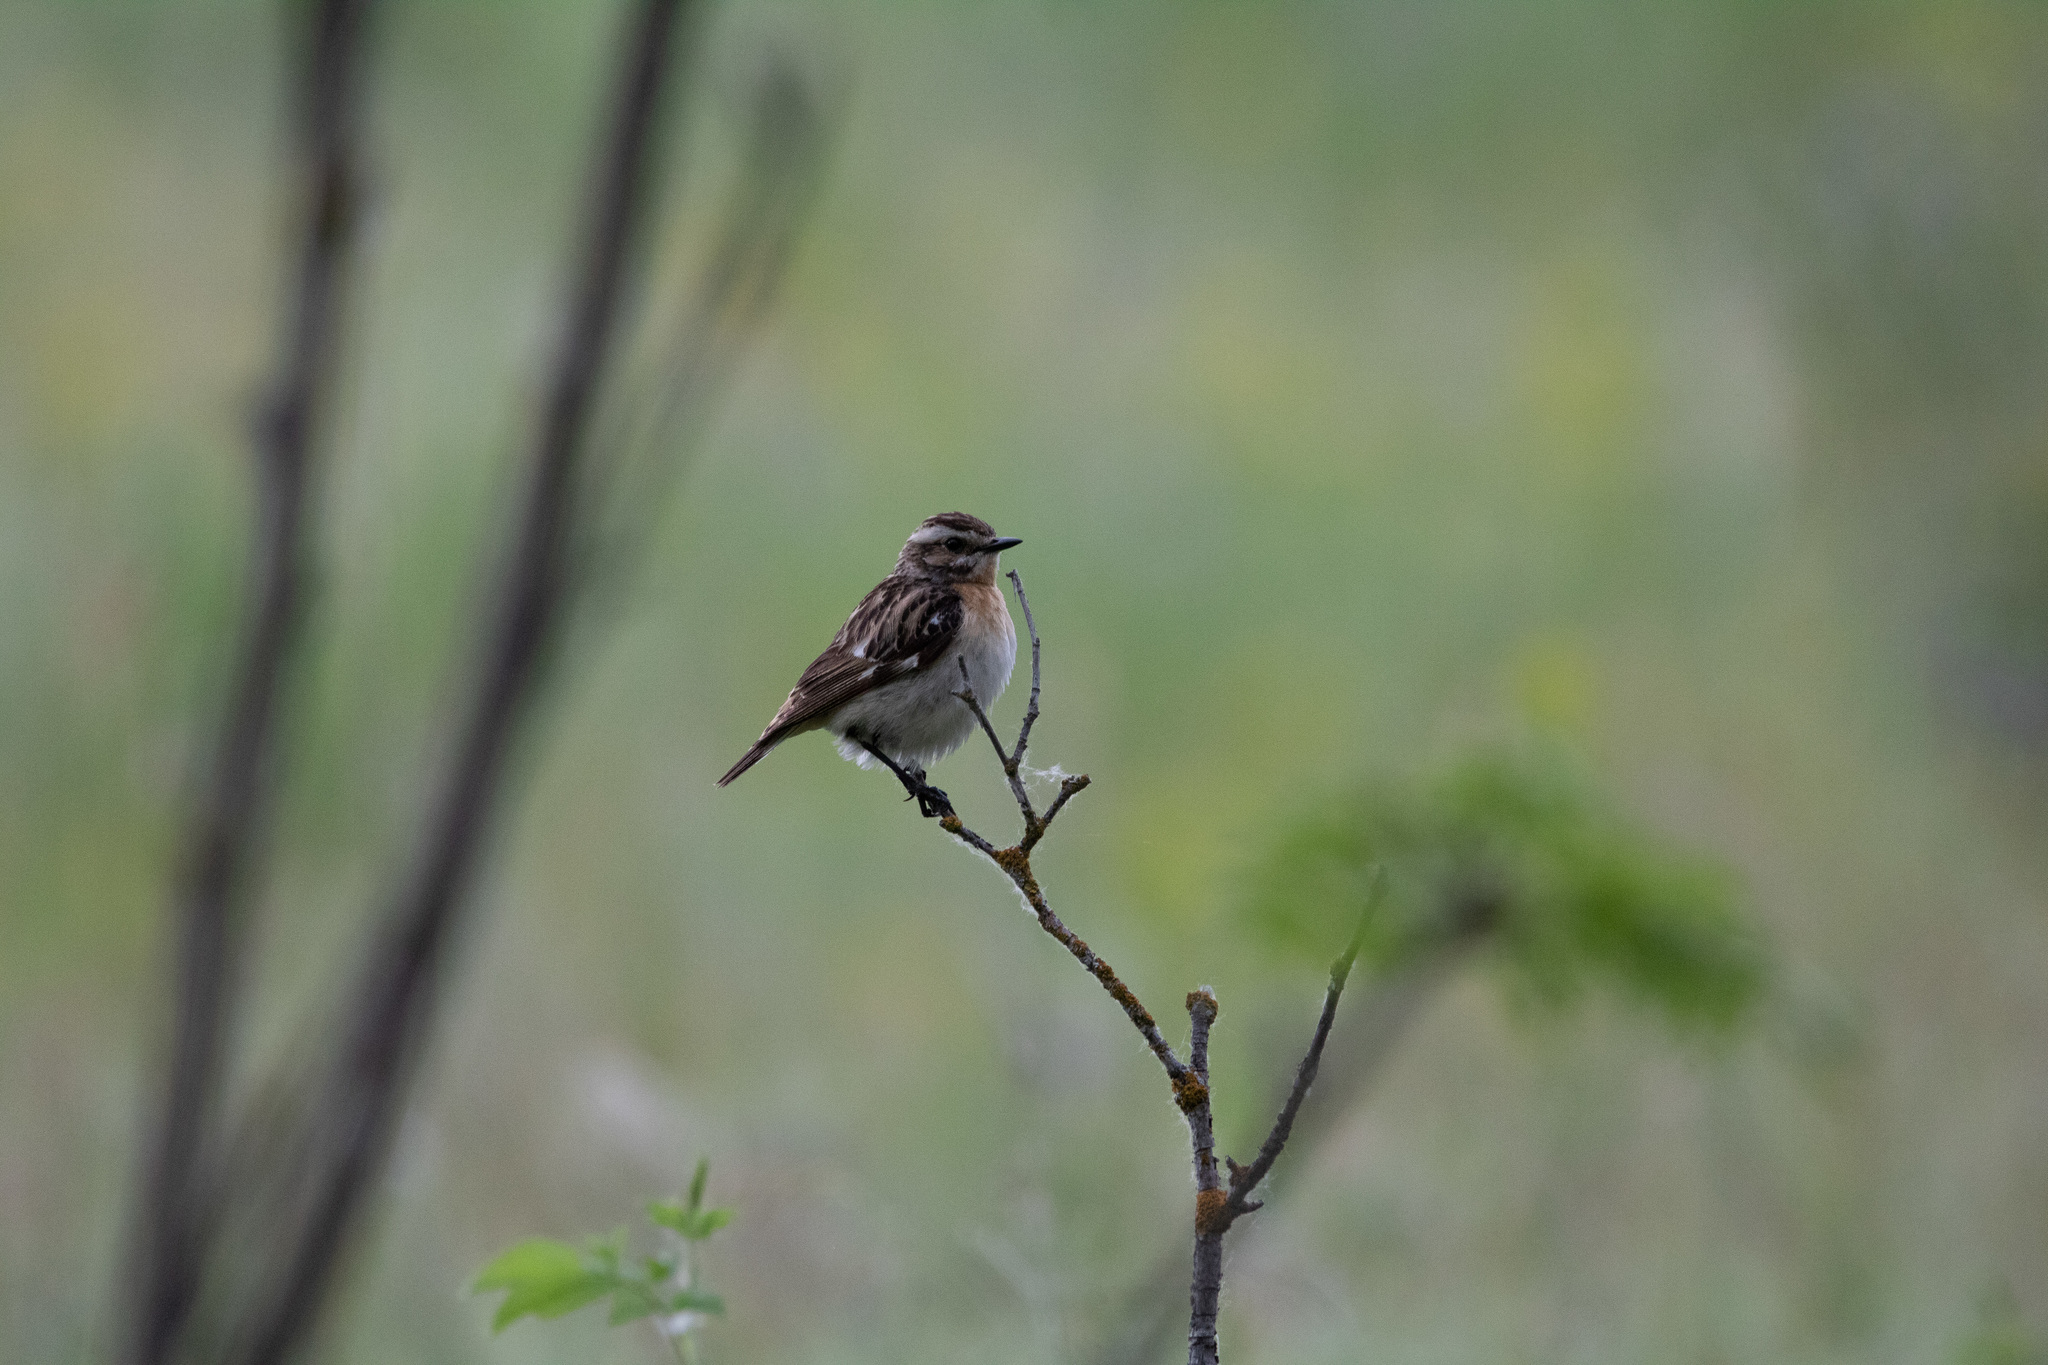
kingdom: Animalia
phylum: Chordata
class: Aves
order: Passeriformes
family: Muscicapidae
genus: Saxicola
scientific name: Saxicola rubetra
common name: Whinchat
